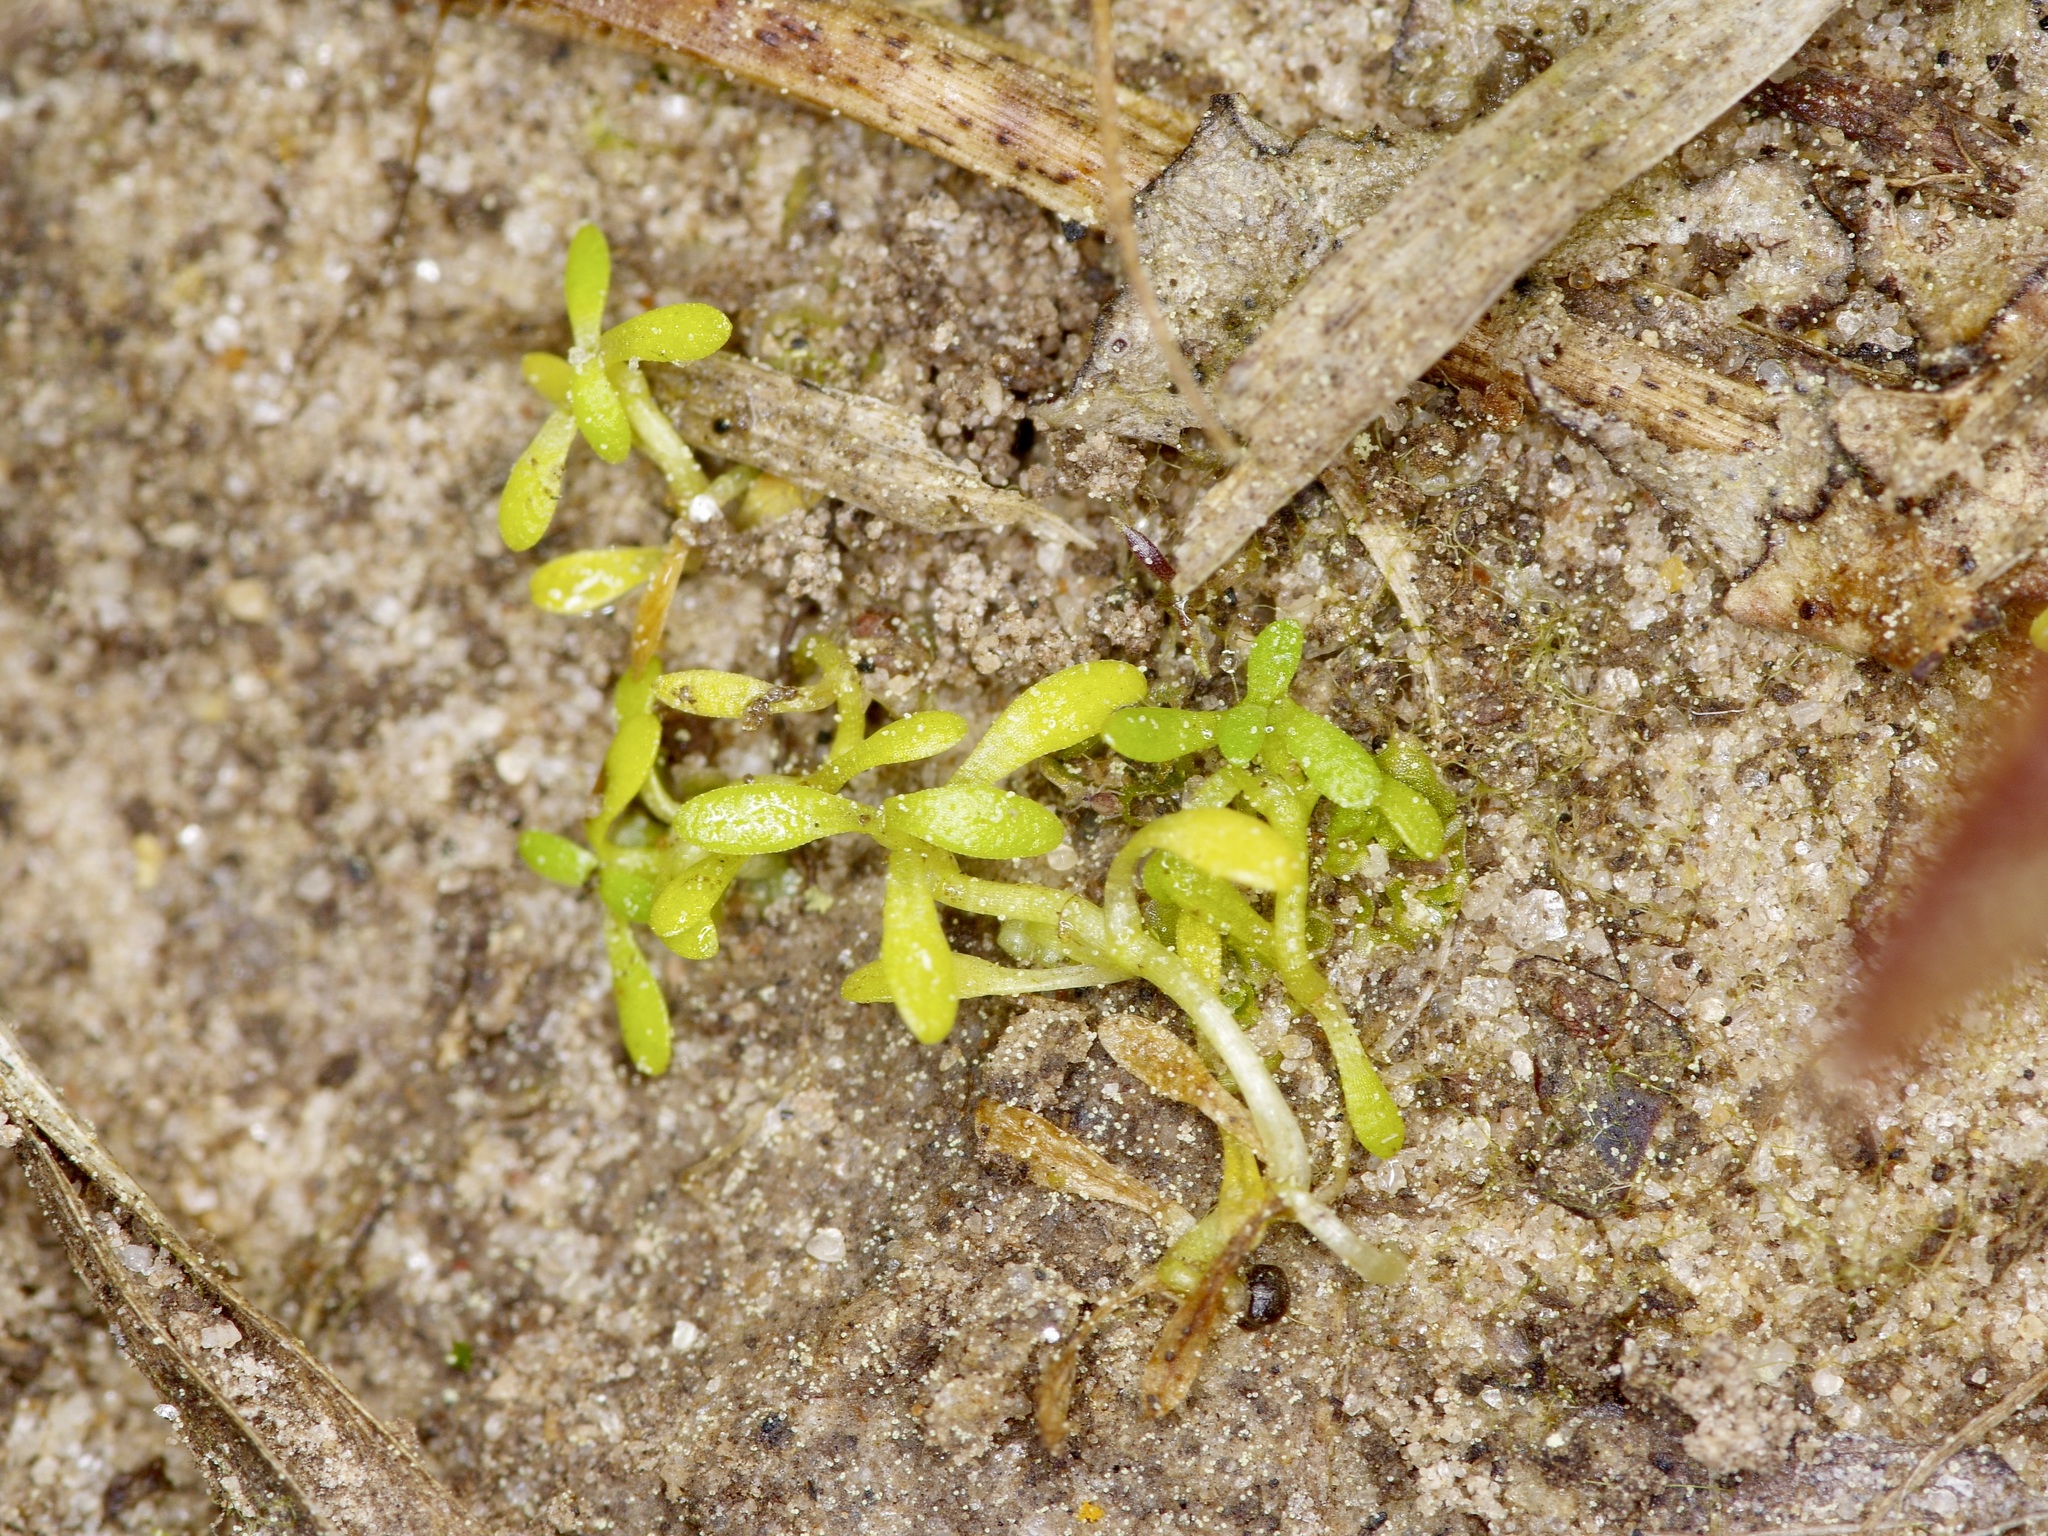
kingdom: Plantae
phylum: Tracheophyta
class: Magnoliopsida
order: Lamiales
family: Plantaginaceae
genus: Callitriche
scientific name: Callitriche pedunculosa
